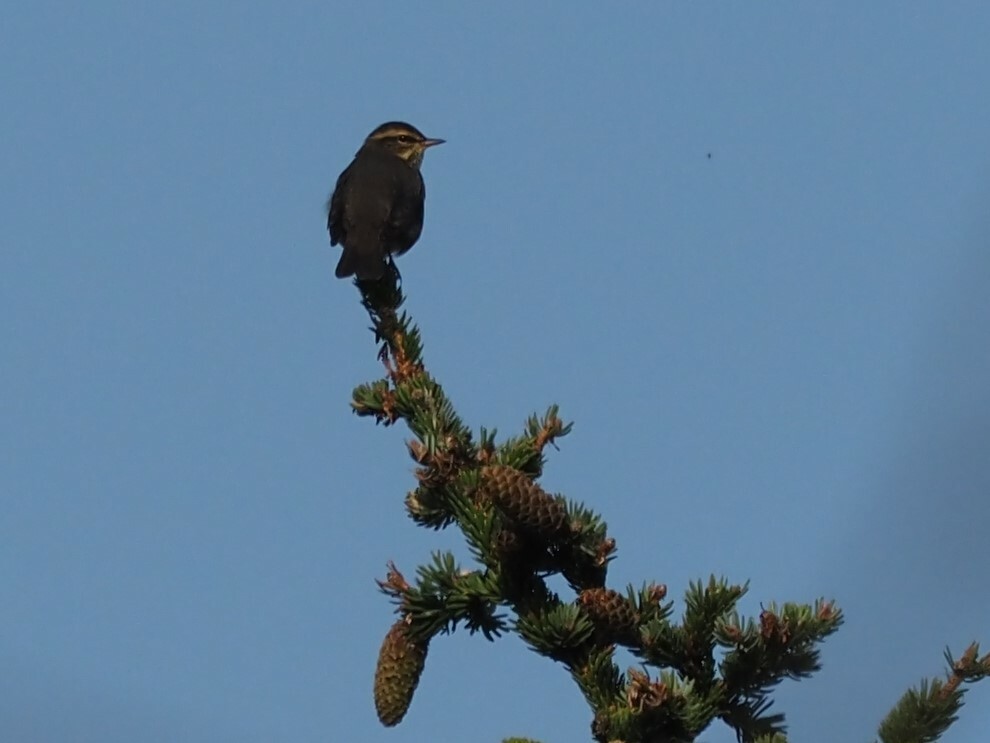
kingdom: Animalia
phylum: Chordata
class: Aves
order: Passeriformes
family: Parulidae
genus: Parkesia
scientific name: Parkesia noveboracensis
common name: Northern waterthrush
